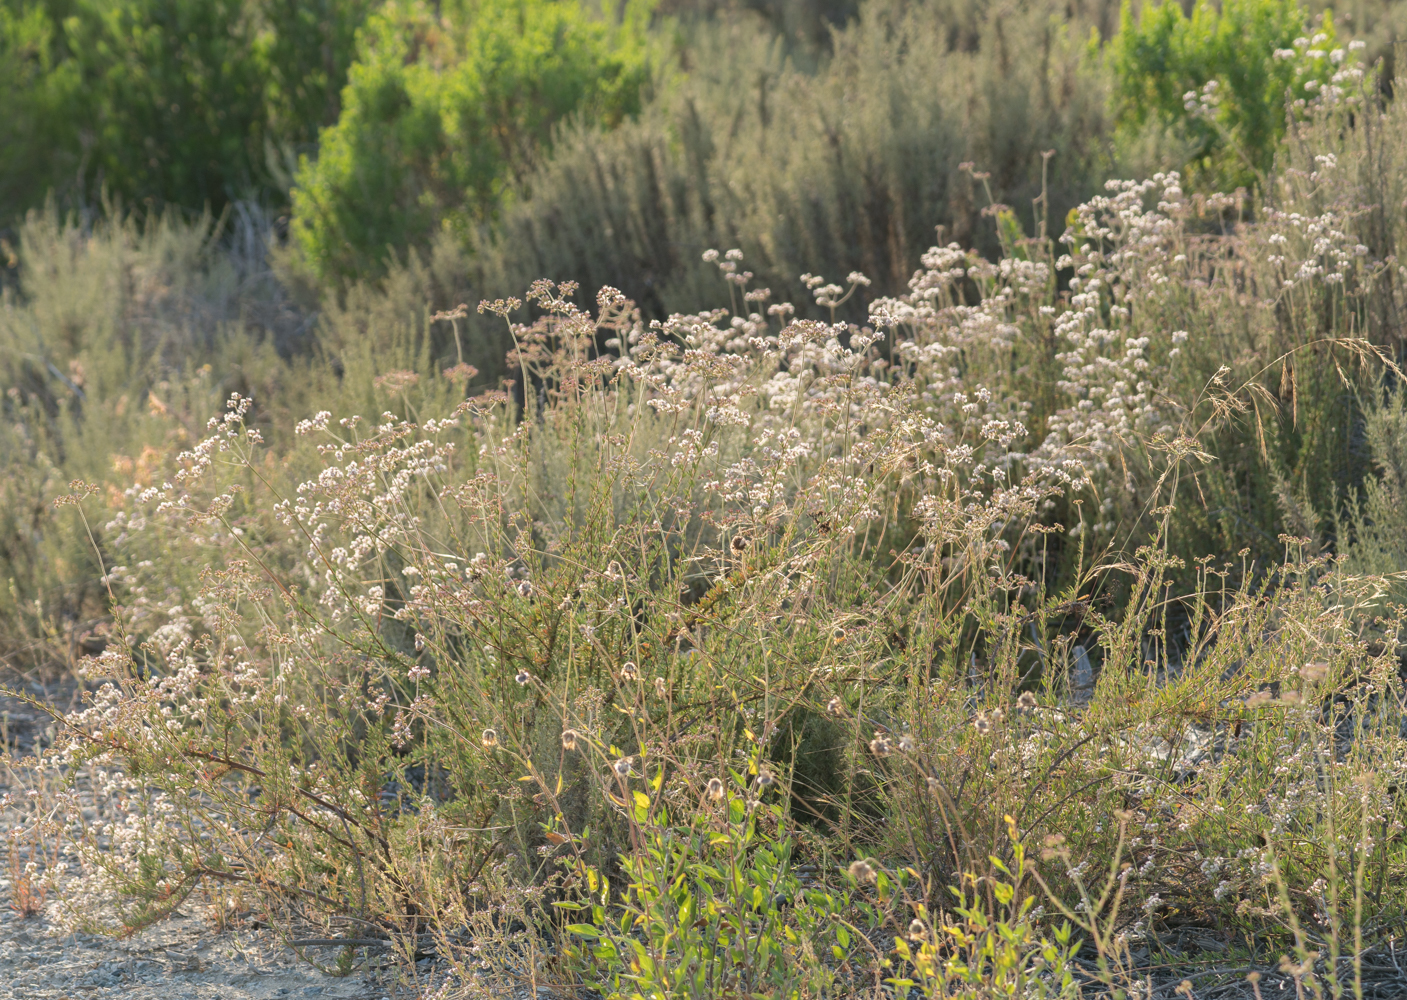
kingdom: Plantae
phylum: Tracheophyta
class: Magnoliopsida
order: Caryophyllales
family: Polygonaceae
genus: Eriogonum
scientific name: Eriogonum fasciculatum
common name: California wild buckwheat
